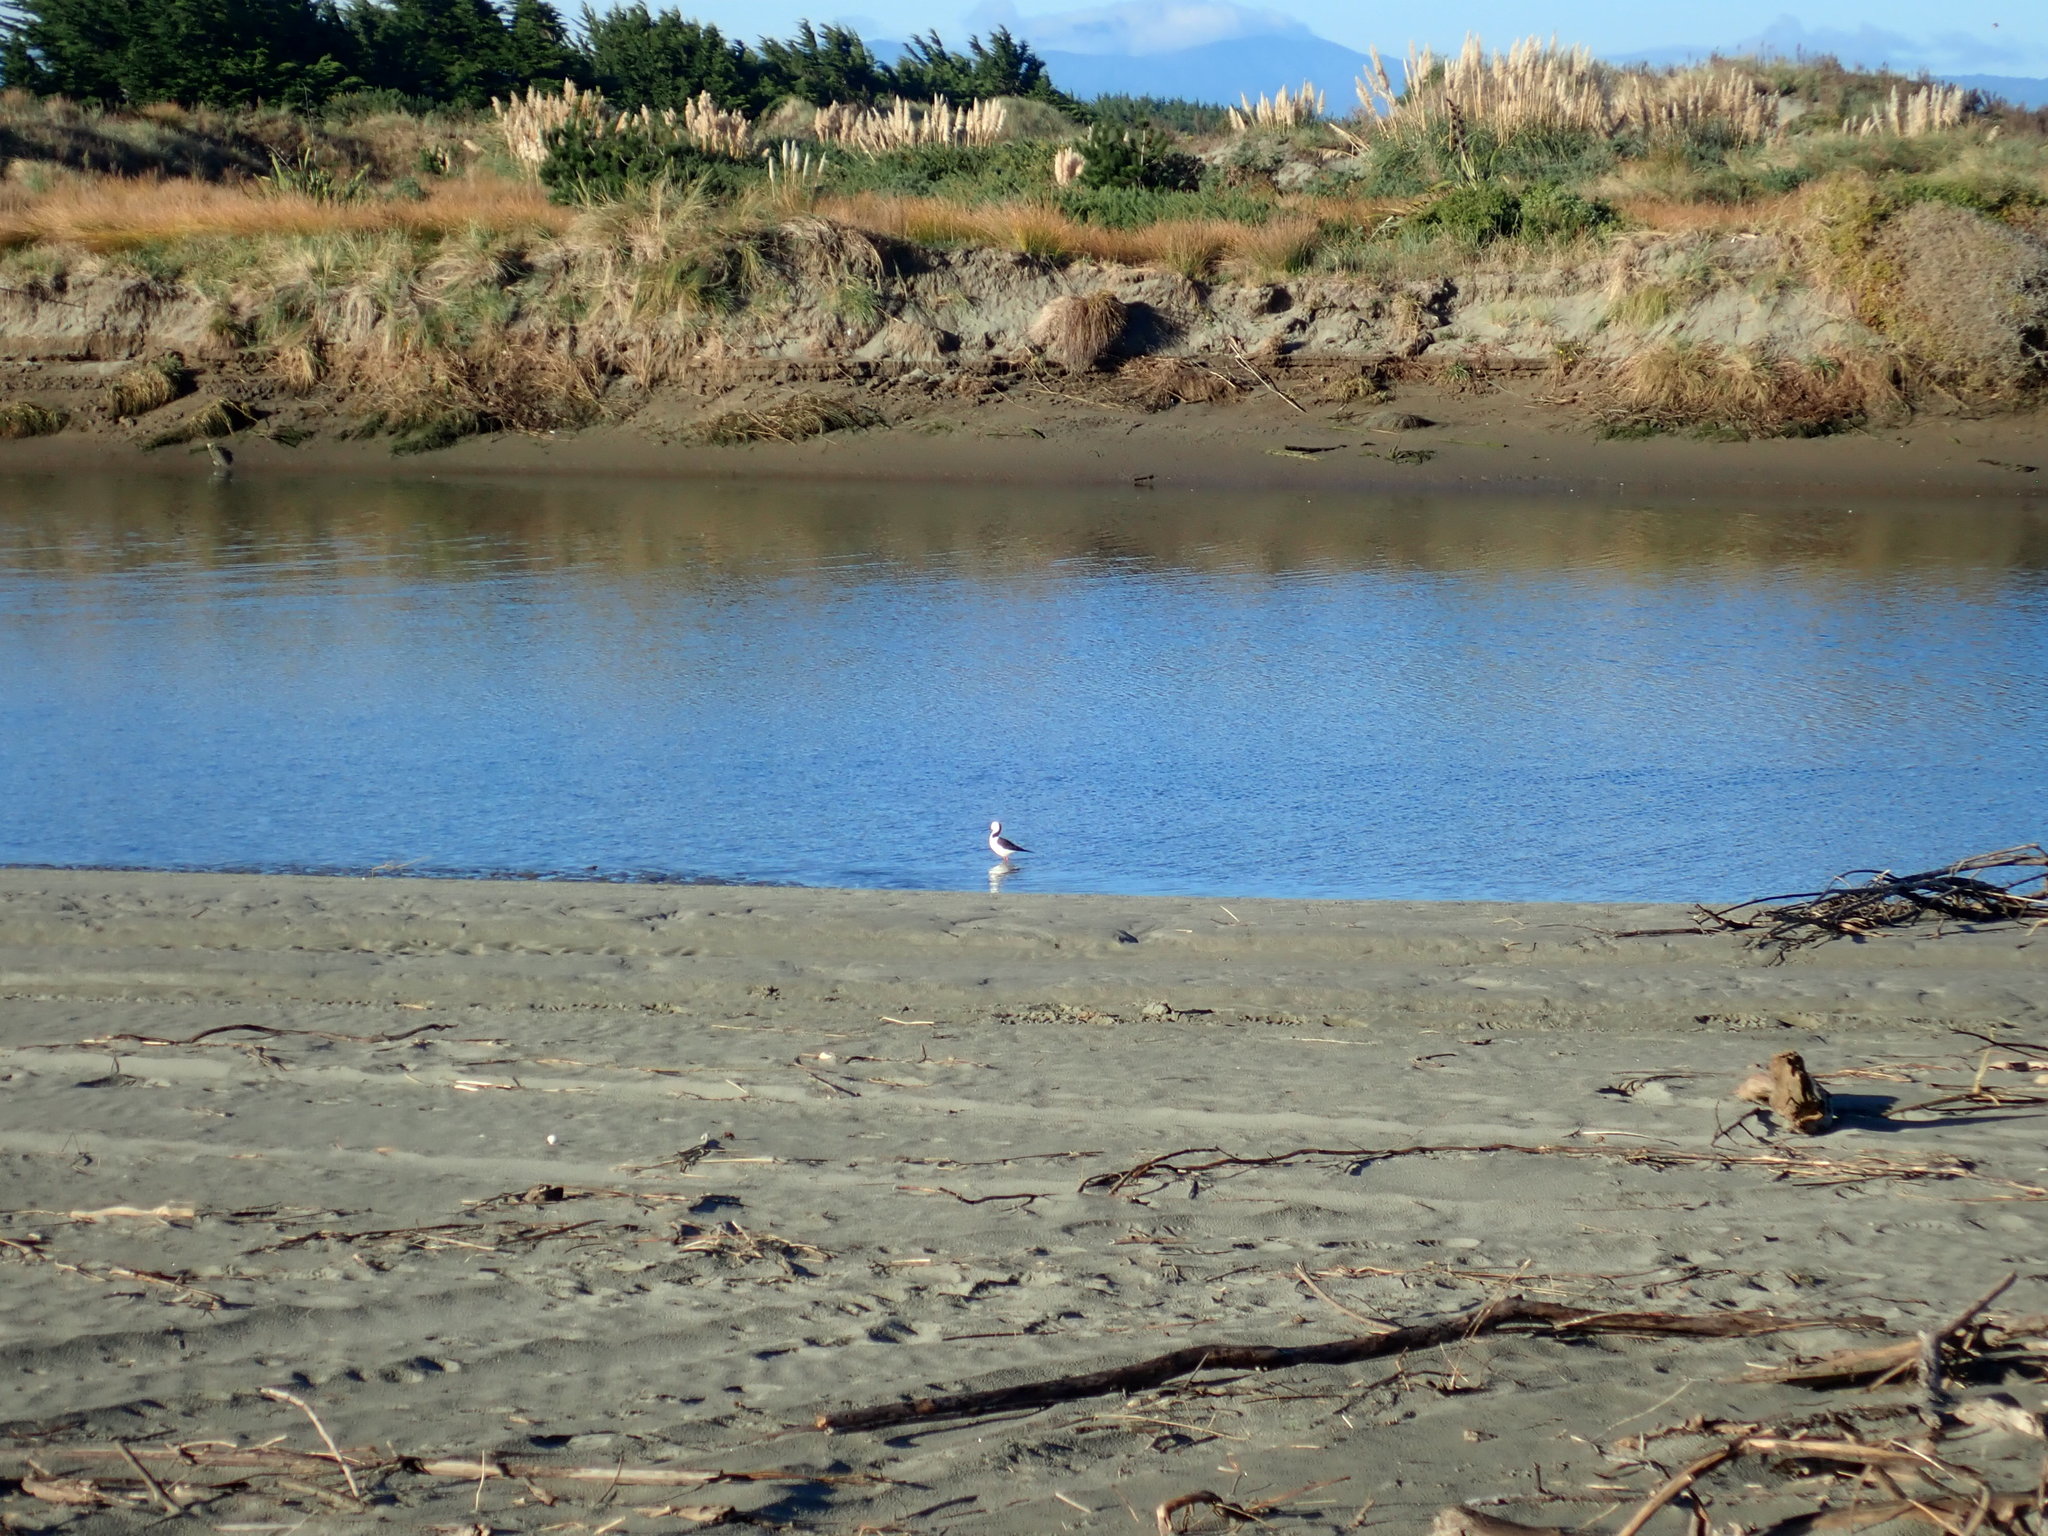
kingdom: Animalia
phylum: Chordata
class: Aves
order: Charadriiformes
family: Recurvirostridae
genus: Himantopus
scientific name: Himantopus leucocephalus
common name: White-headed stilt
